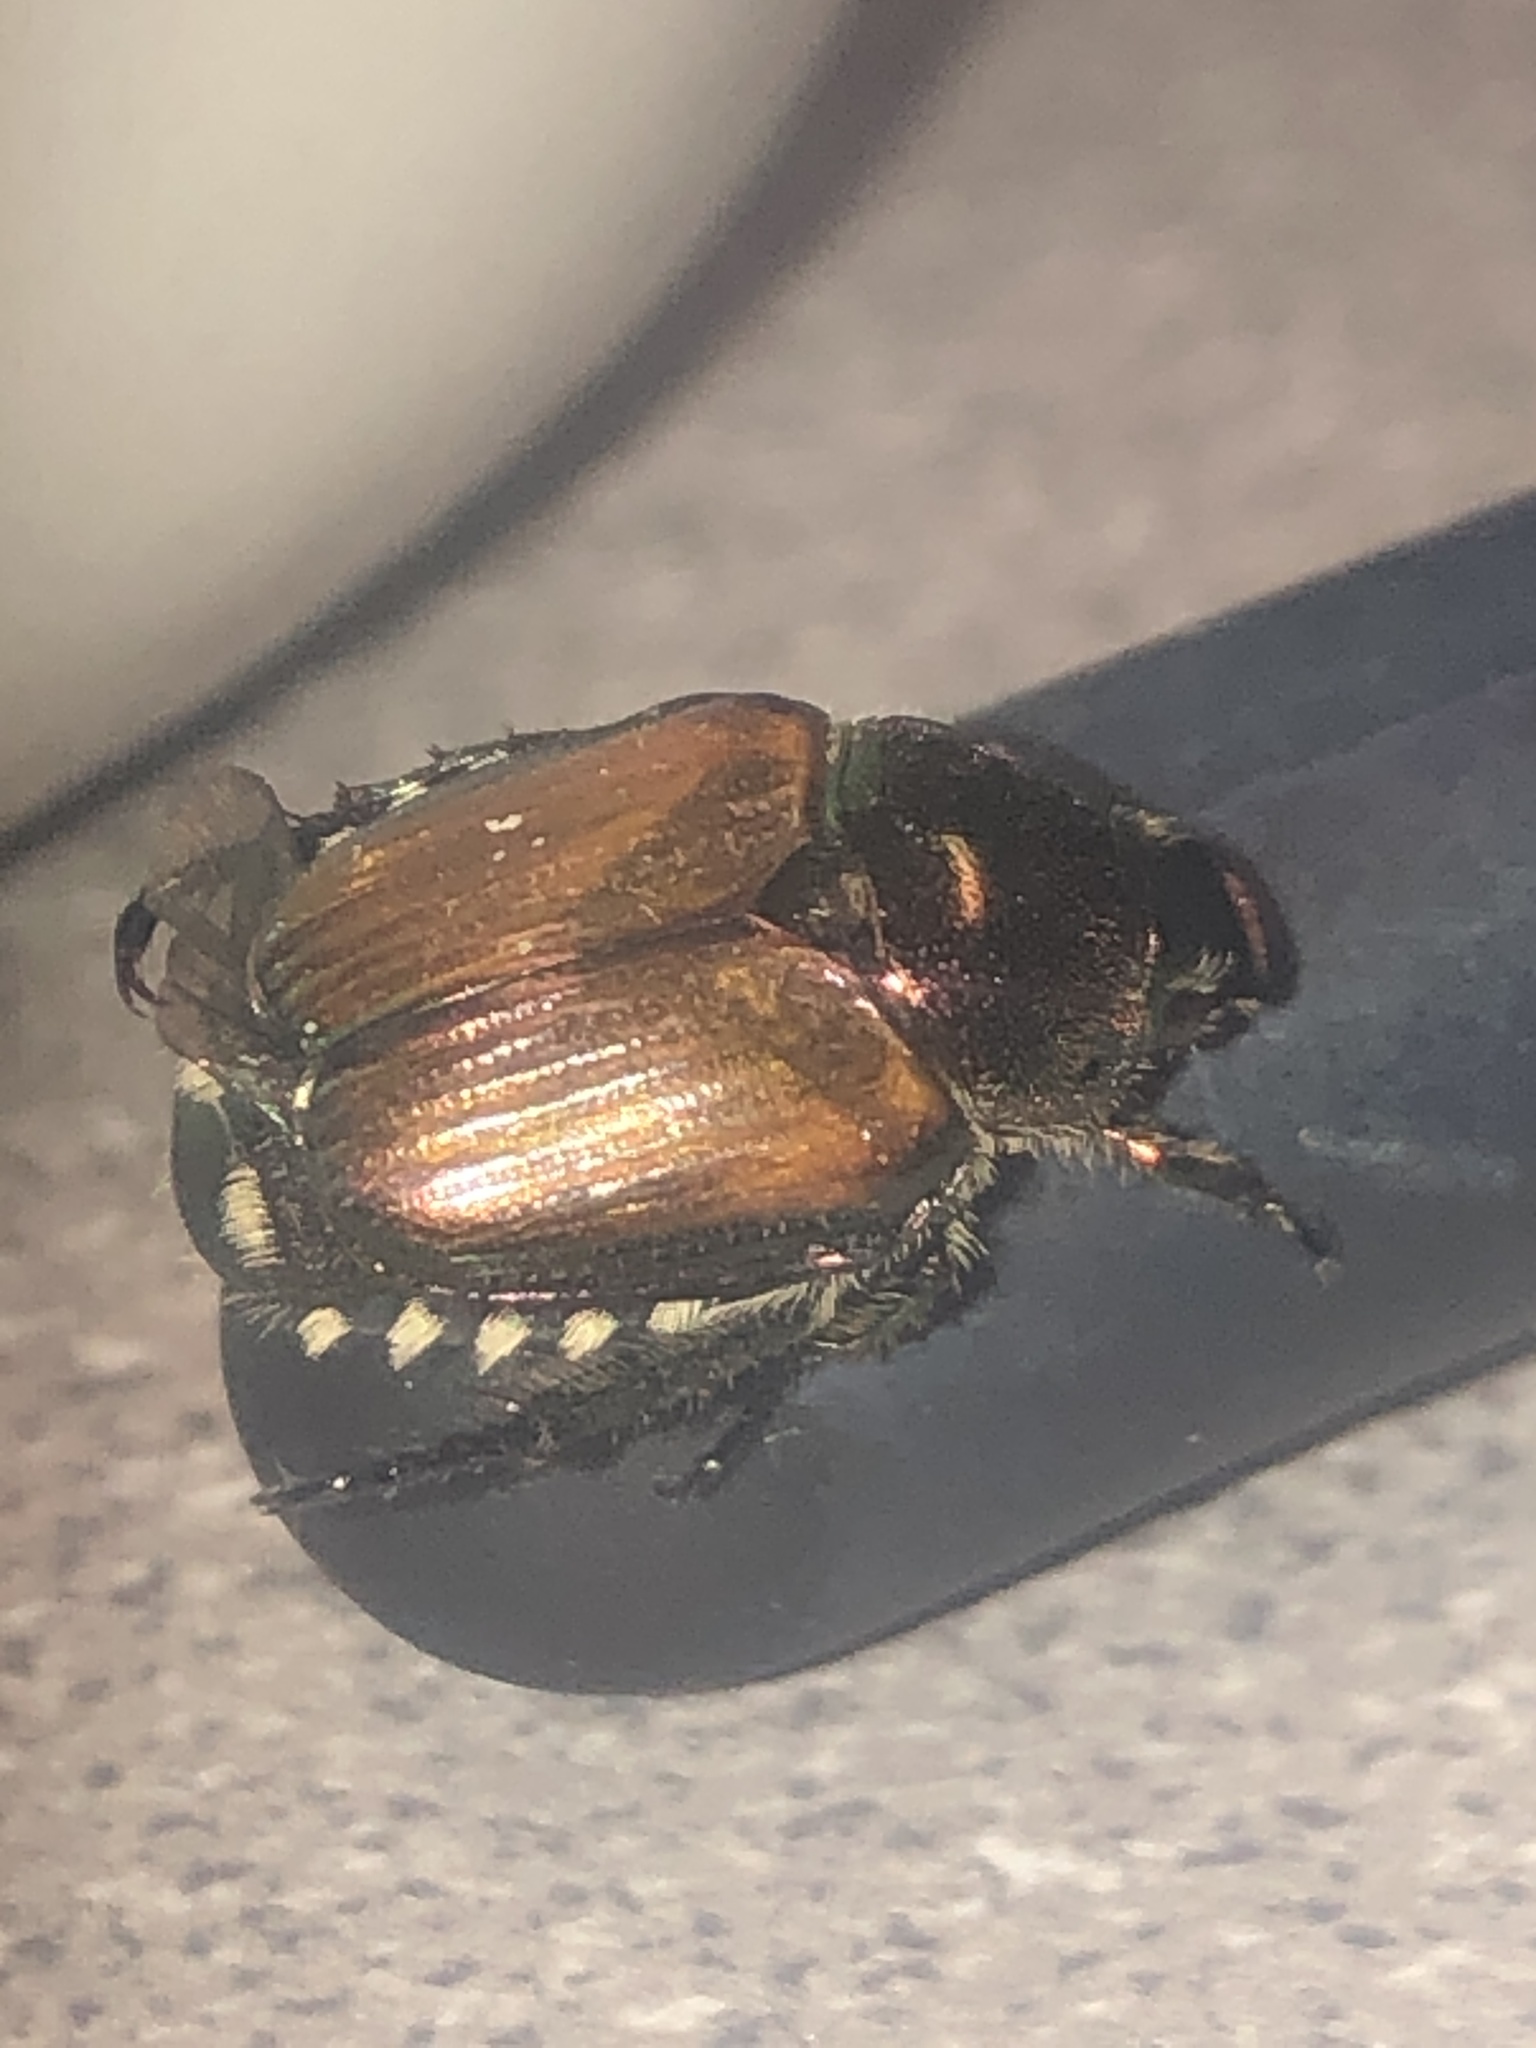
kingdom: Animalia
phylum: Arthropoda
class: Insecta
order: Coleoptera
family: Scarabaeidae
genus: Popillia
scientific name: Popillia japonica
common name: Japanese beetle
